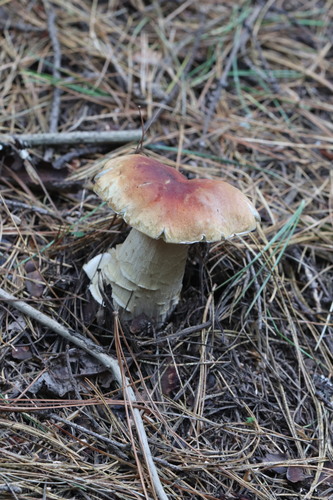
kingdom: Fungi
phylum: Basidiomycota
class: Agaricomycetes
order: Boletales
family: Boletaceae
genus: Boletus
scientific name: Boletus edulis
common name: Cep
